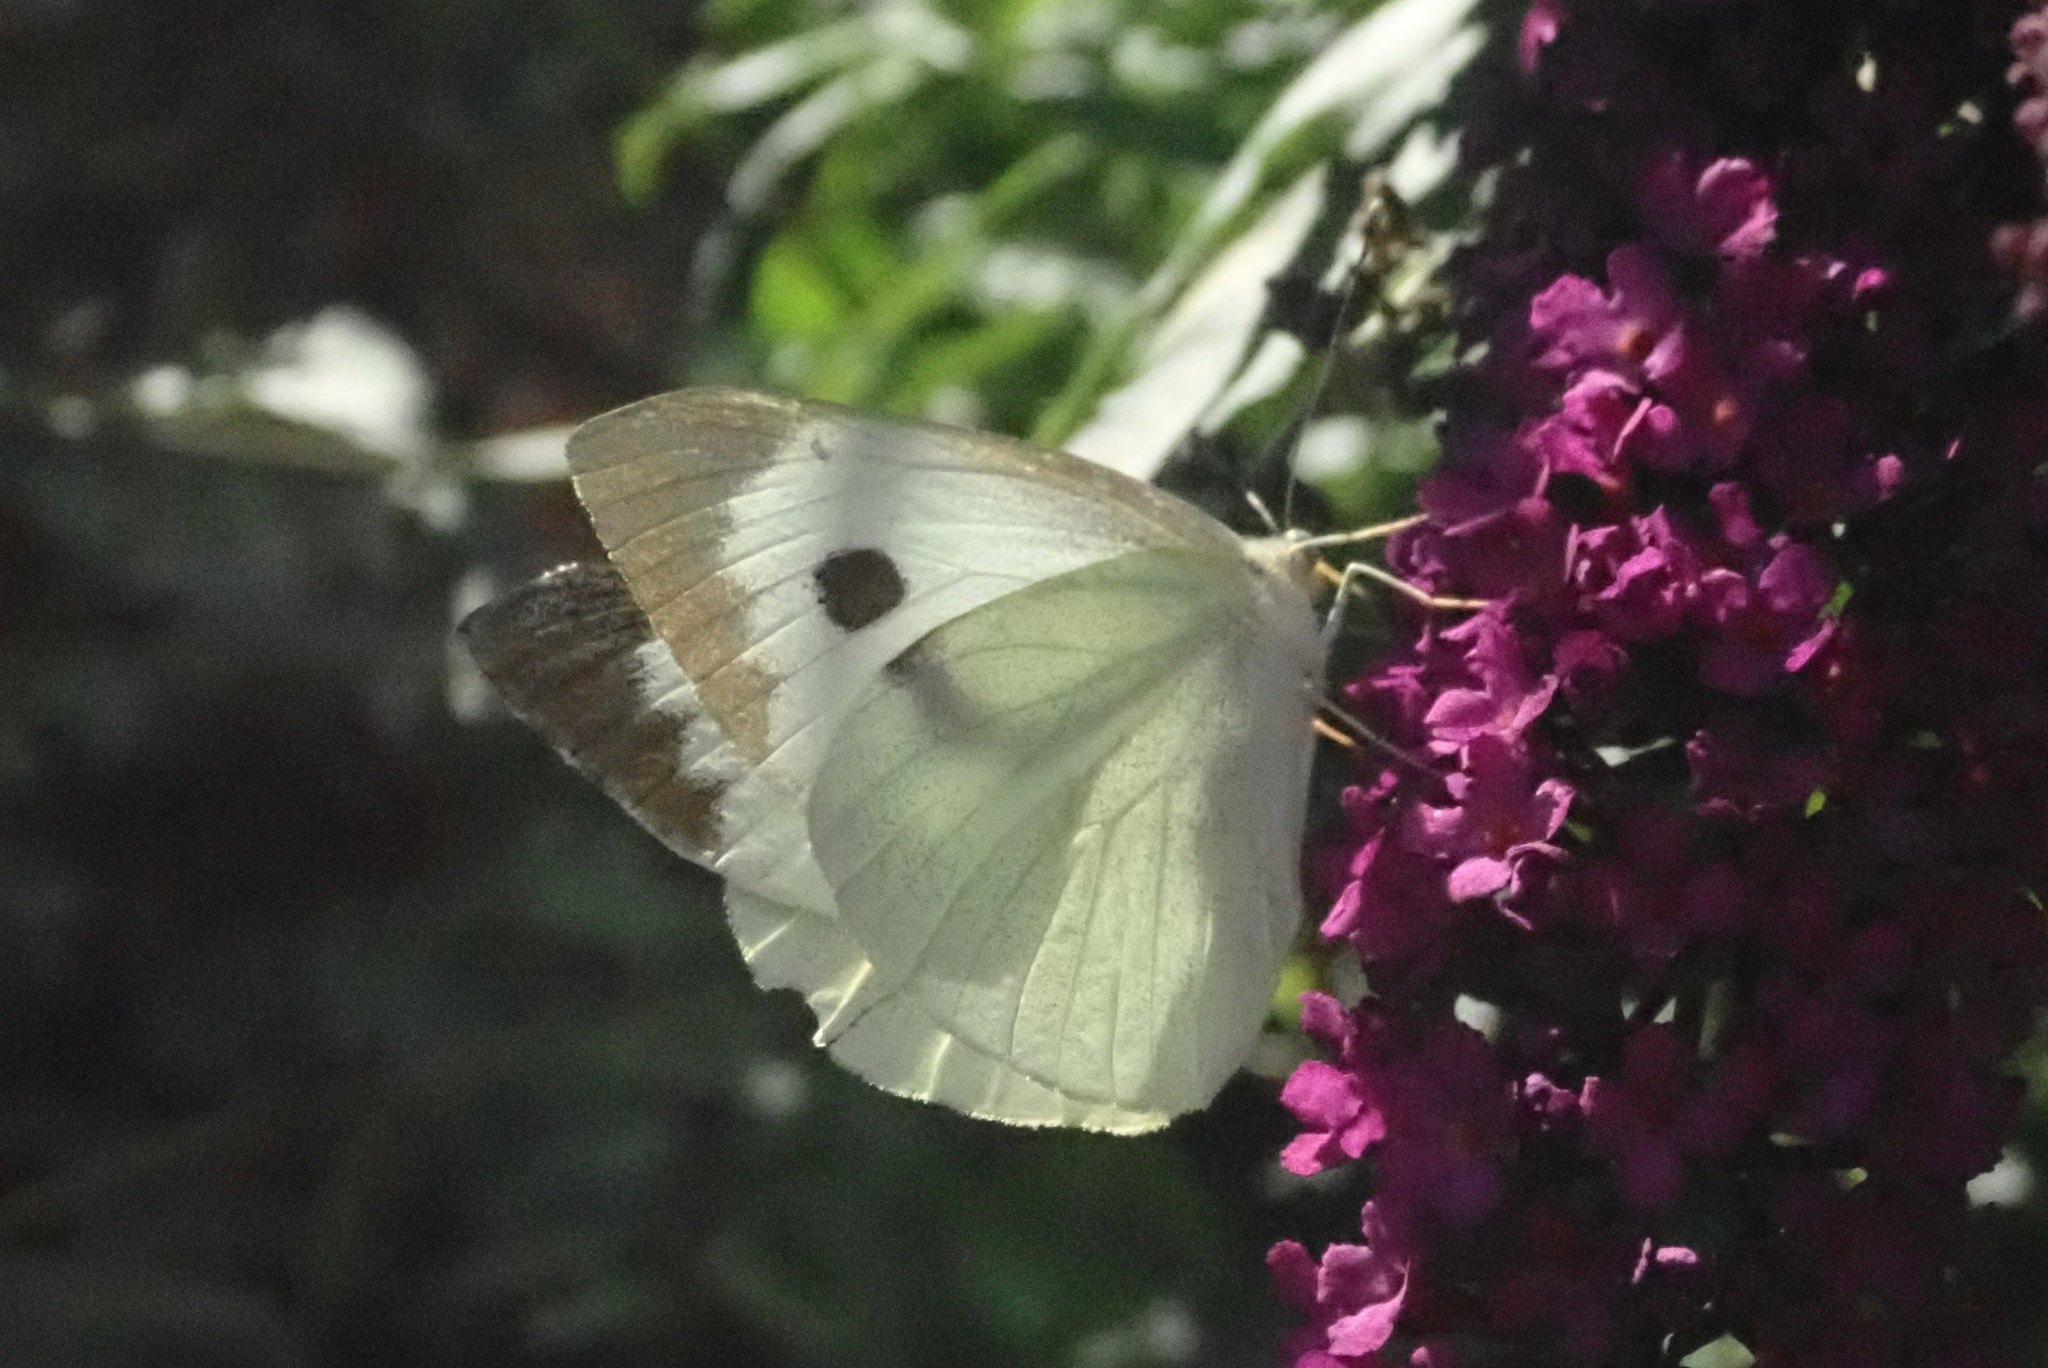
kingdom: Animalia
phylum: Arthropoda
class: Insecta
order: Lepidoptera
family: Pieridae
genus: Pieris
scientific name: Pieris brassicae
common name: Large white
